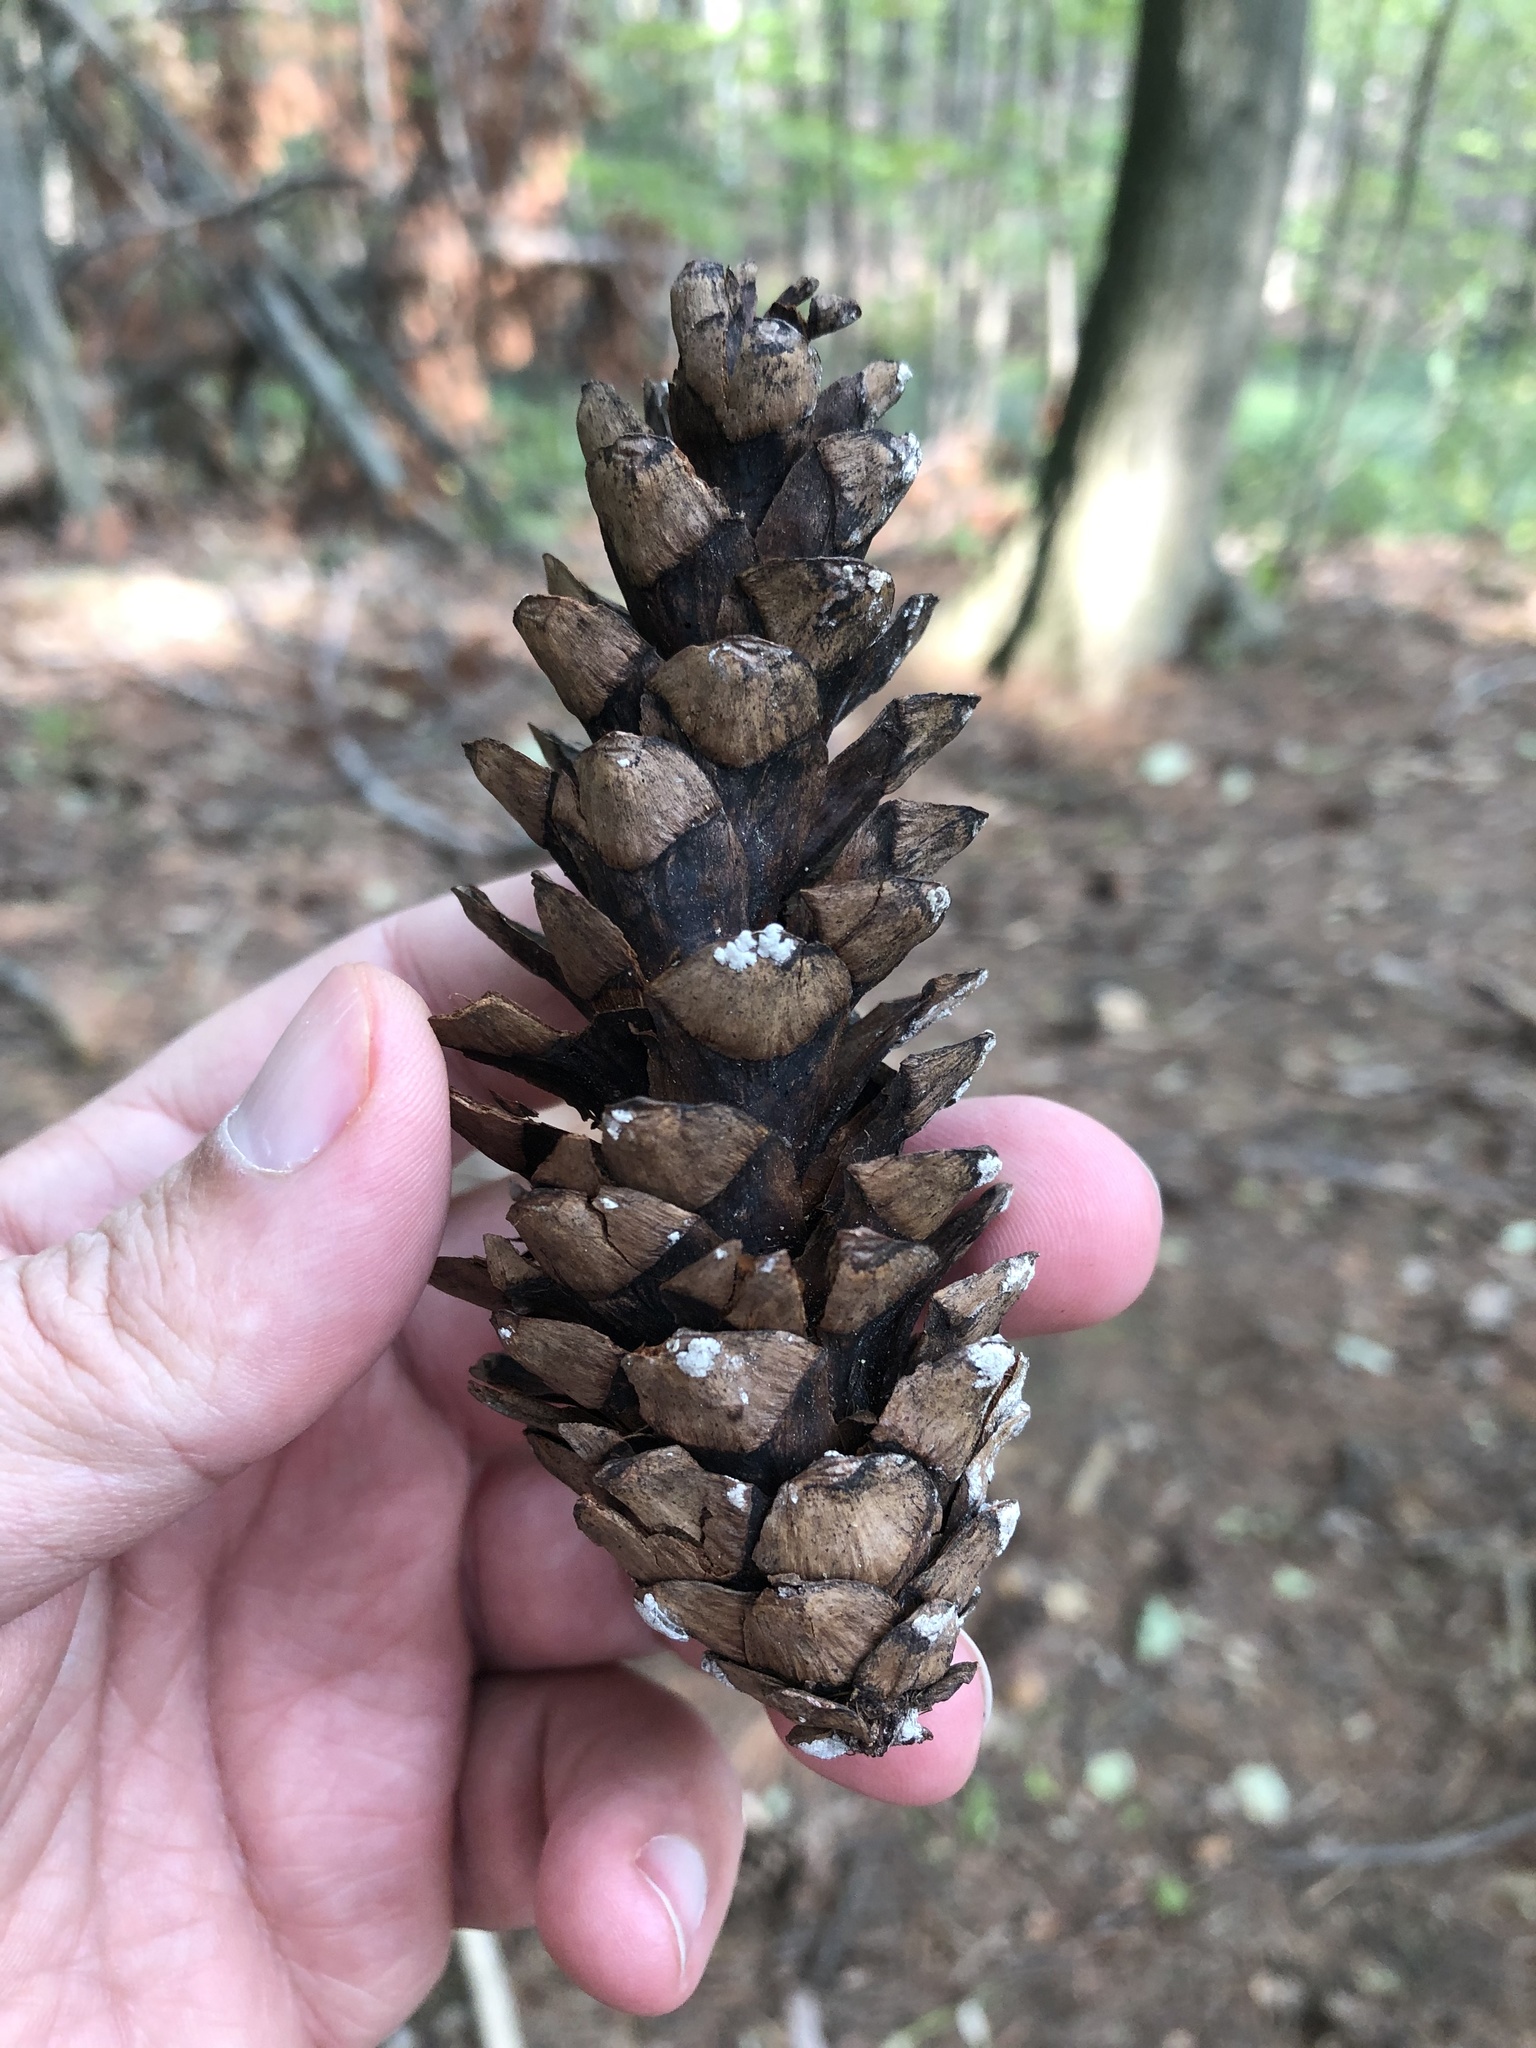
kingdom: Plantae
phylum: Tracheophyta
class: Pinopsida
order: Pinales
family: Pinaceae
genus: Pinus
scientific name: Pinus strobus
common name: Weymouth pine
